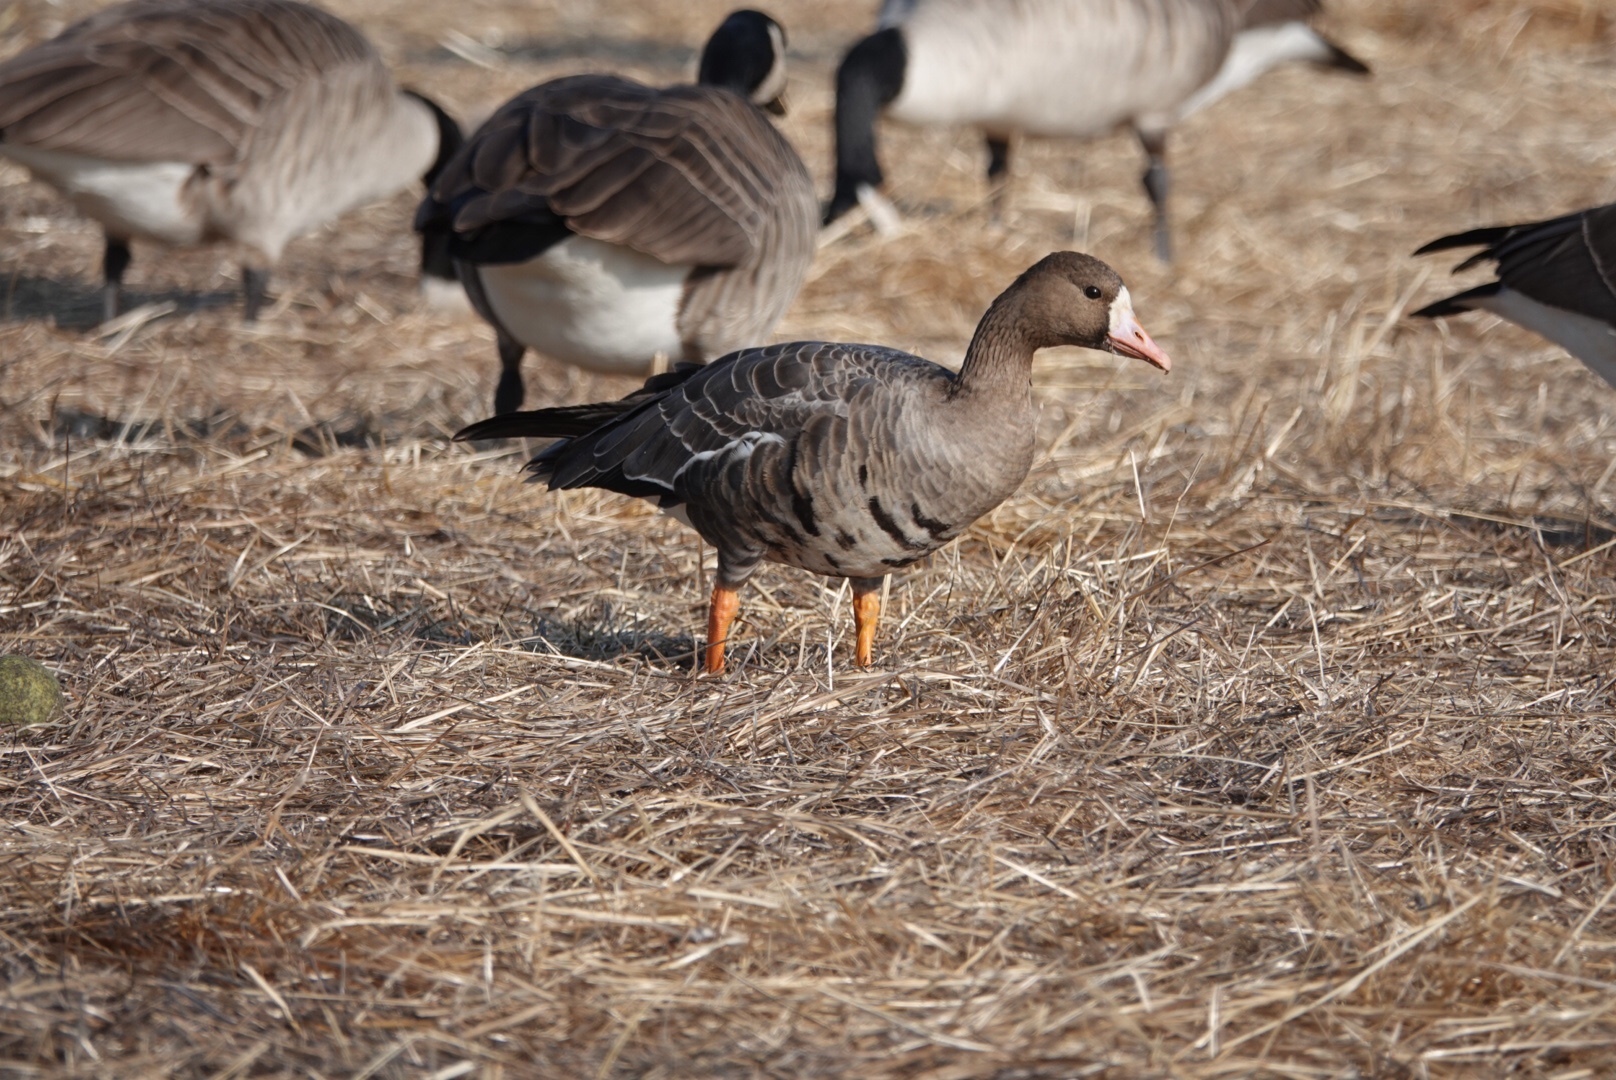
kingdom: Animalia
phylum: Chordata
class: Aves
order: Anseriformes
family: Anatidae
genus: Anser
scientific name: Anser albifrons
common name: Greater white-fronted goose
